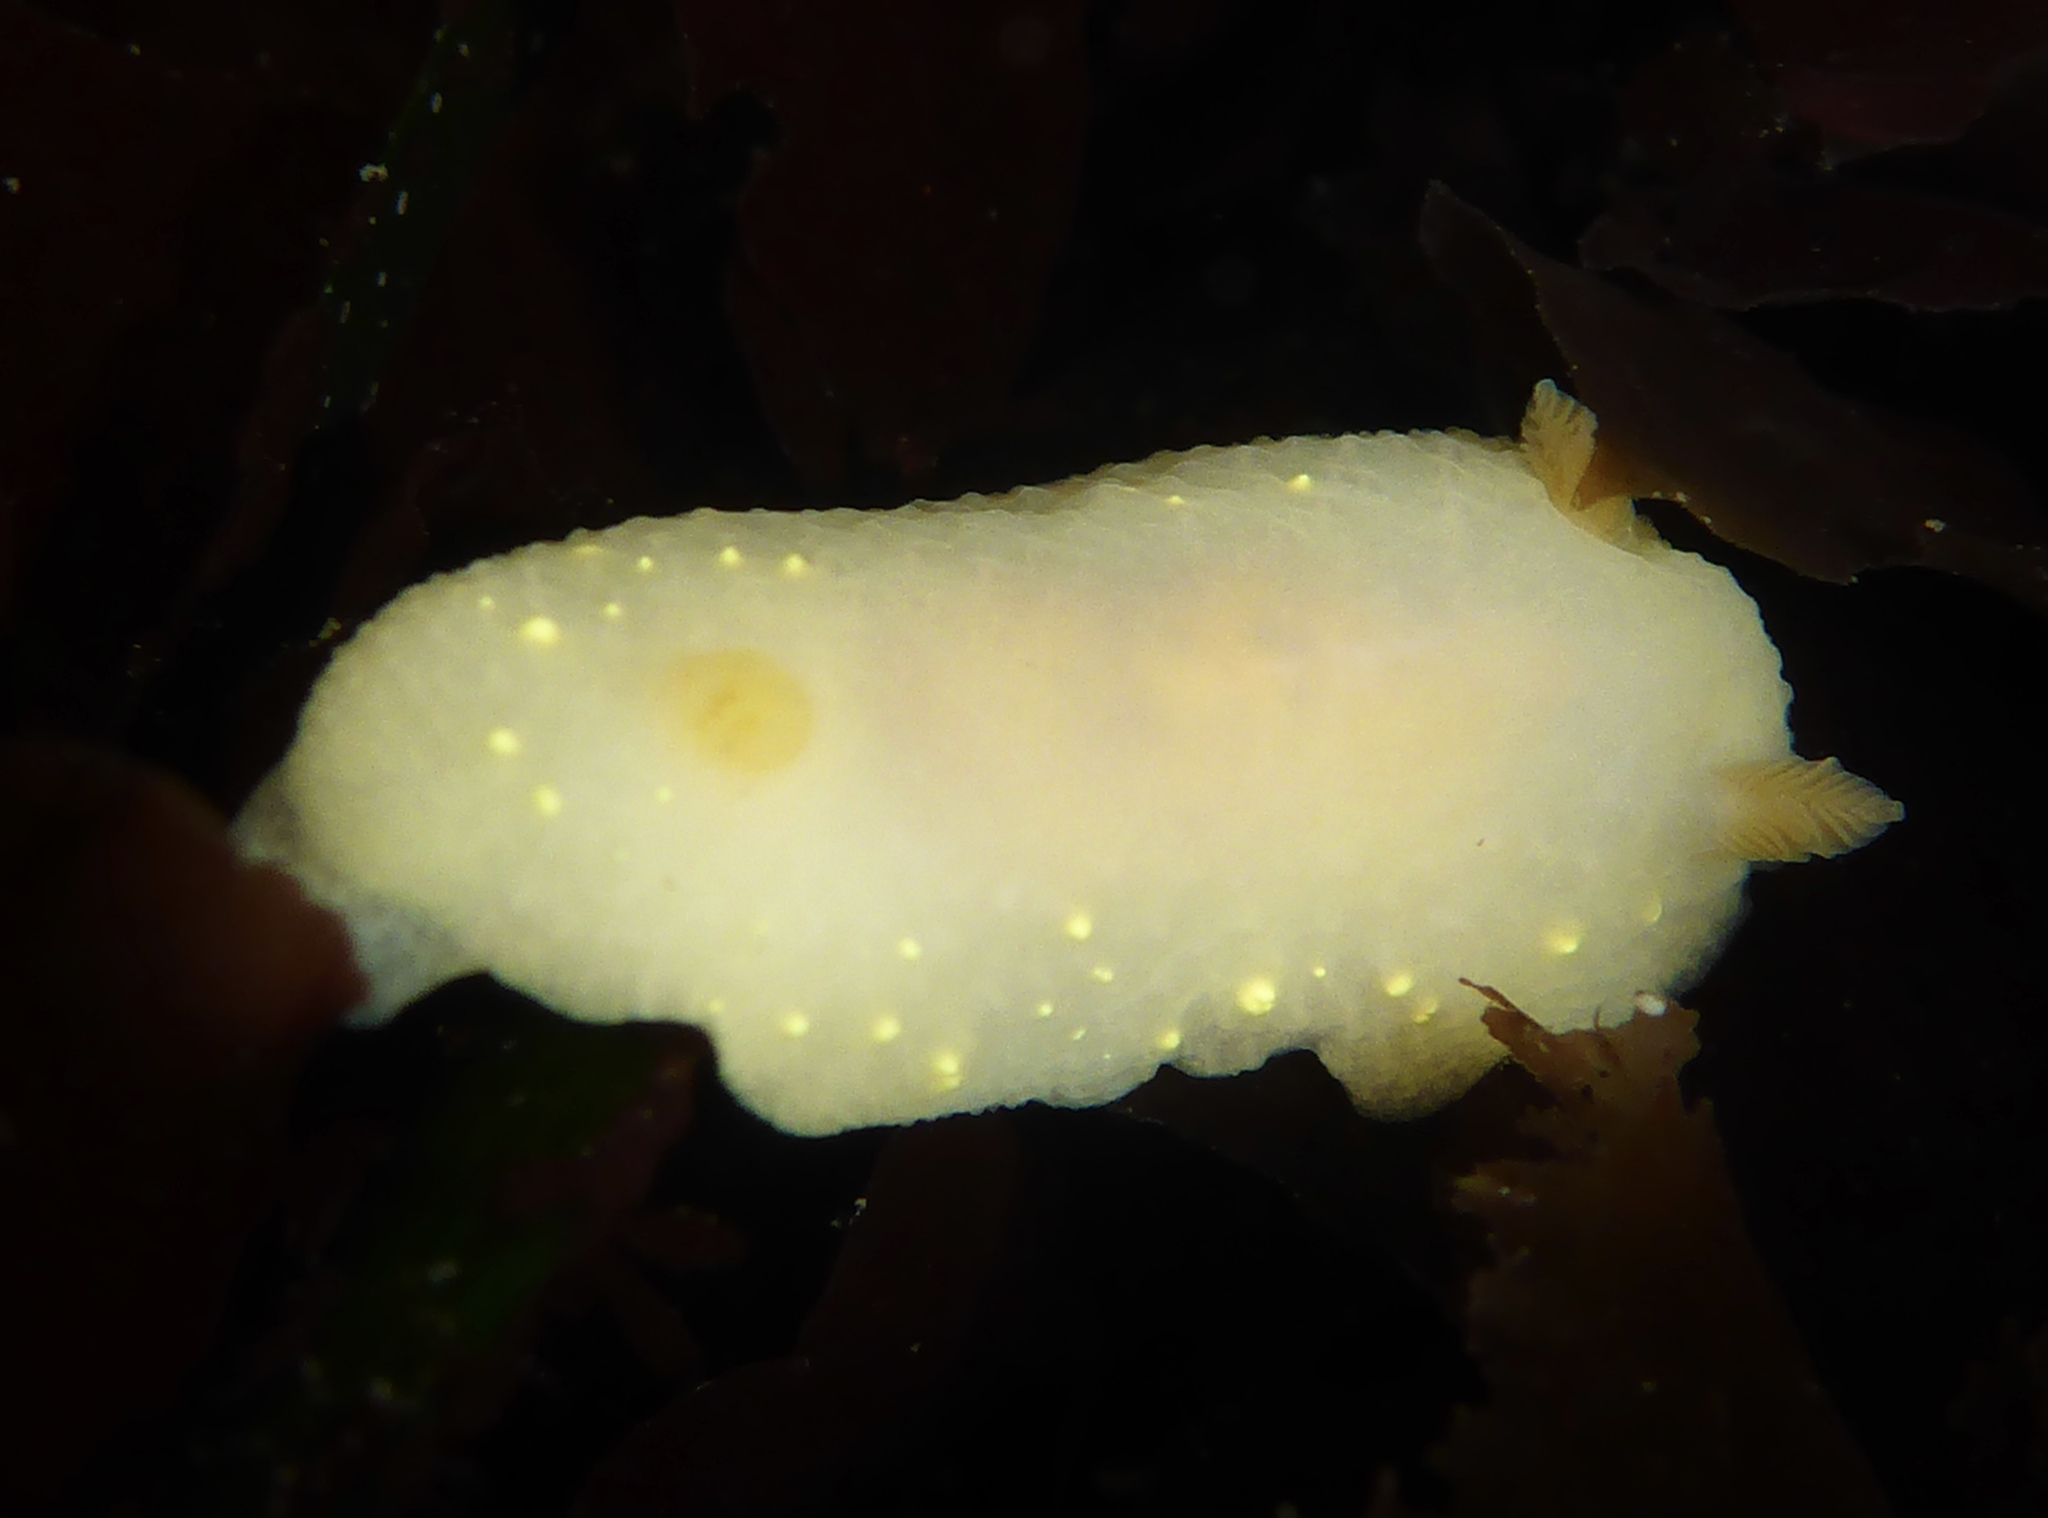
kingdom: Animalia
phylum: Mollusca
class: Gastropoda
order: Nudibranchia
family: Cadlinidae
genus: Cadlina
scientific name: Cadlina modesta
